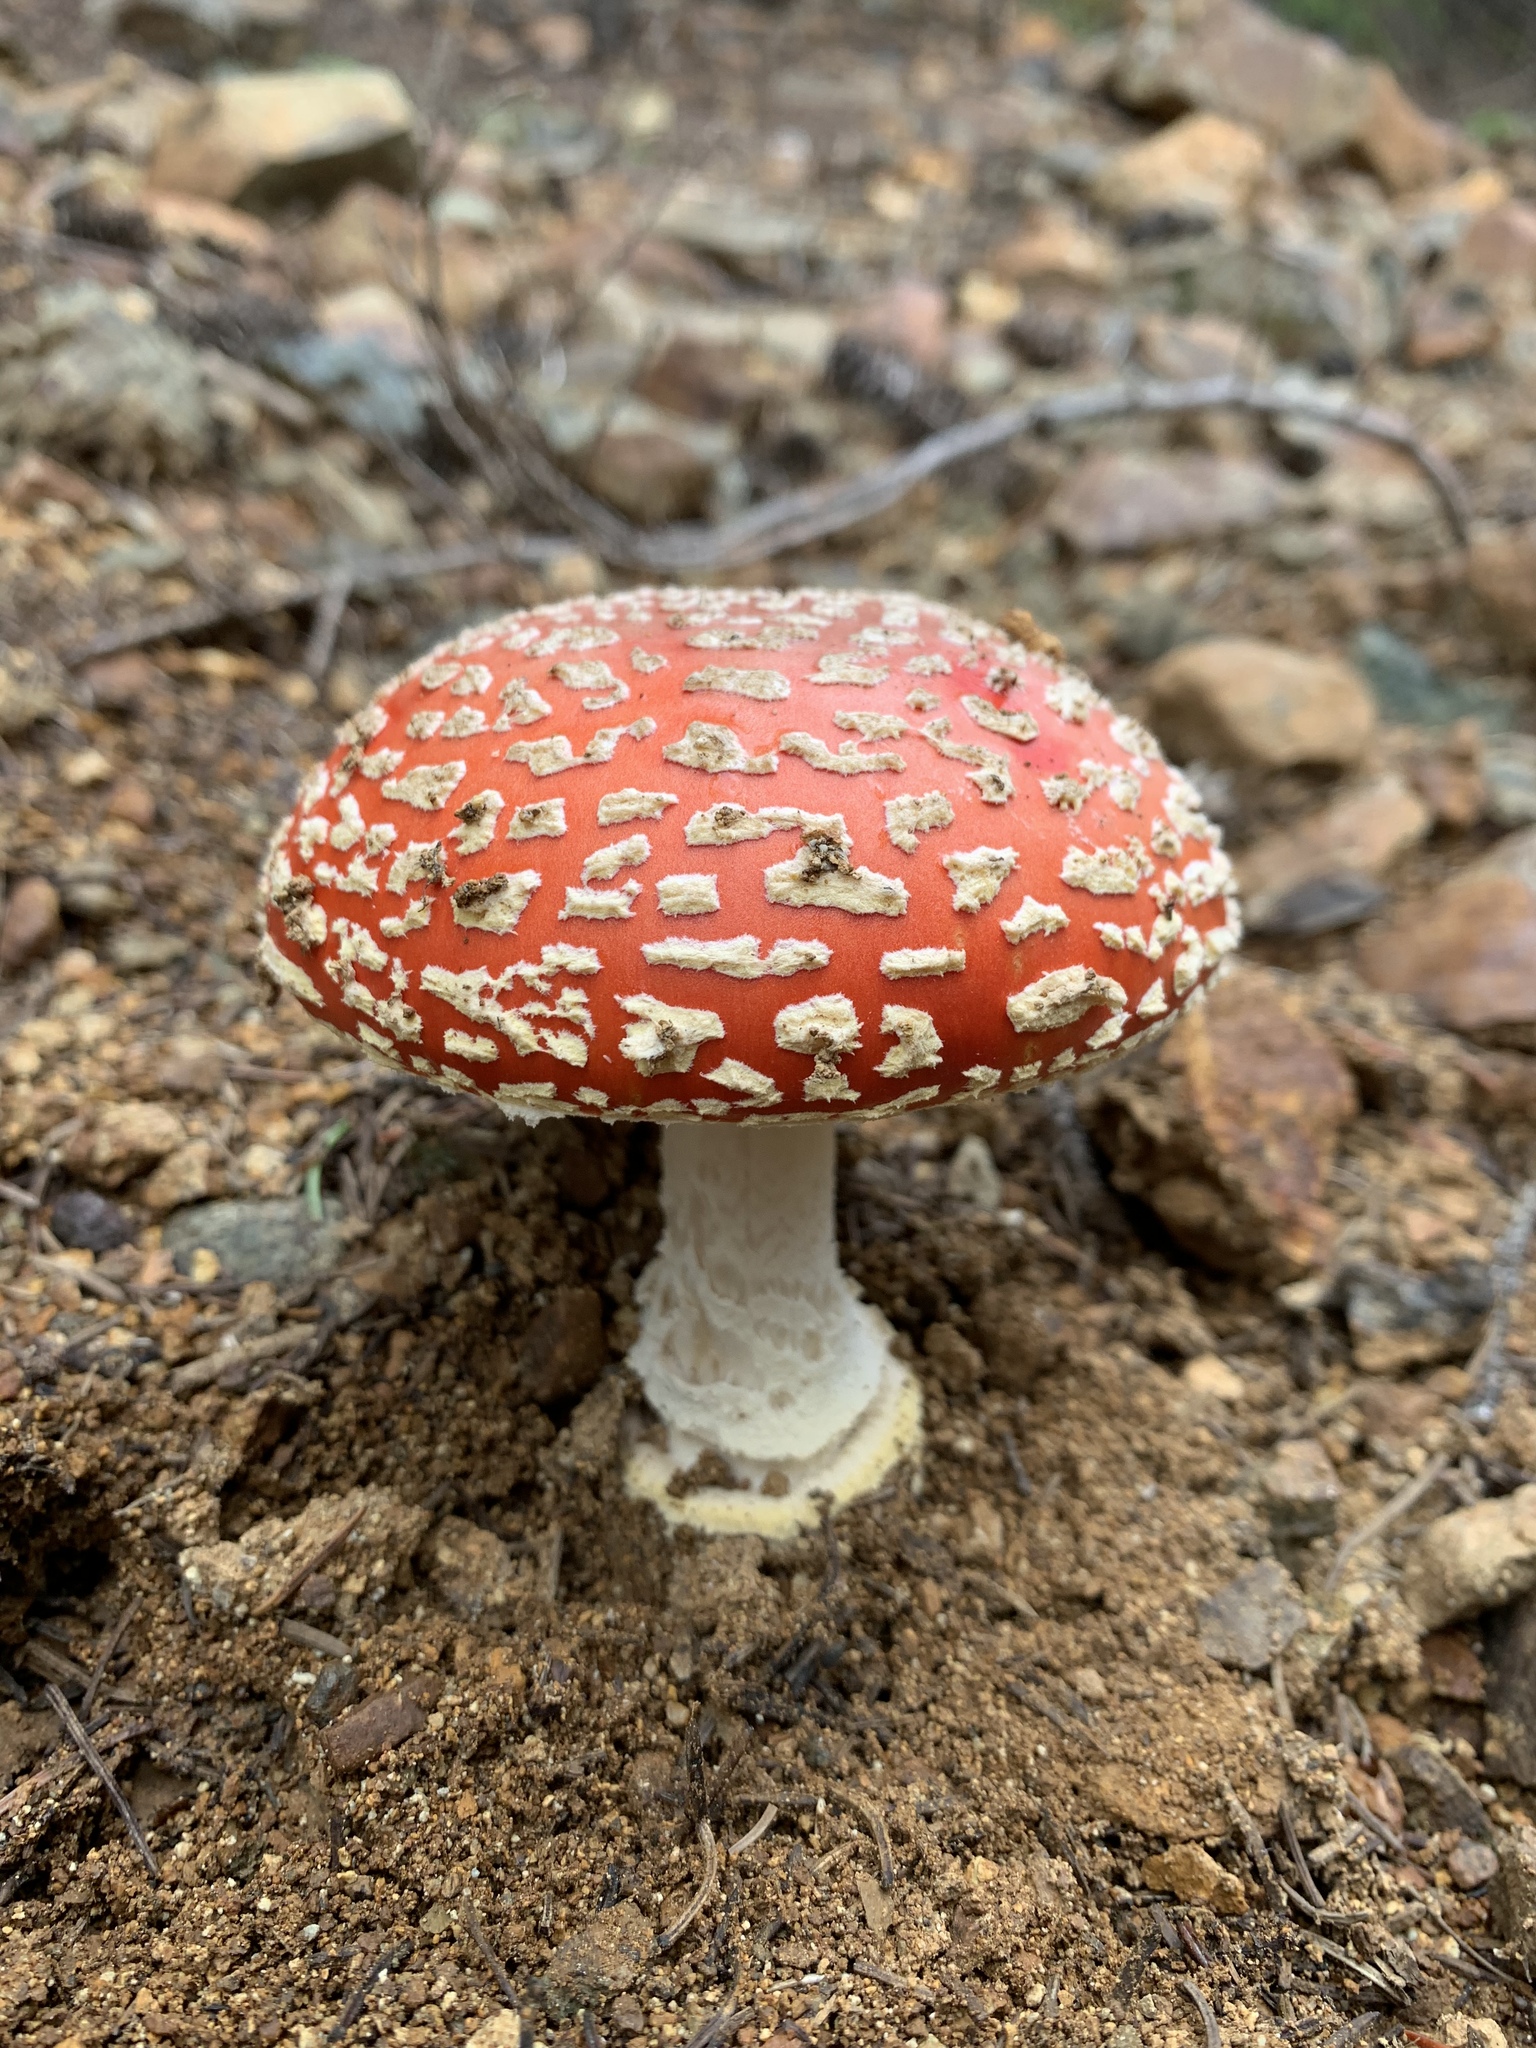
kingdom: Fungi
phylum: Basidiomycota
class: Agaricomycetes
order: Agaricales
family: Amanitaceae
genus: Amanita
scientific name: Amanita muscaria
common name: Fly agaric
